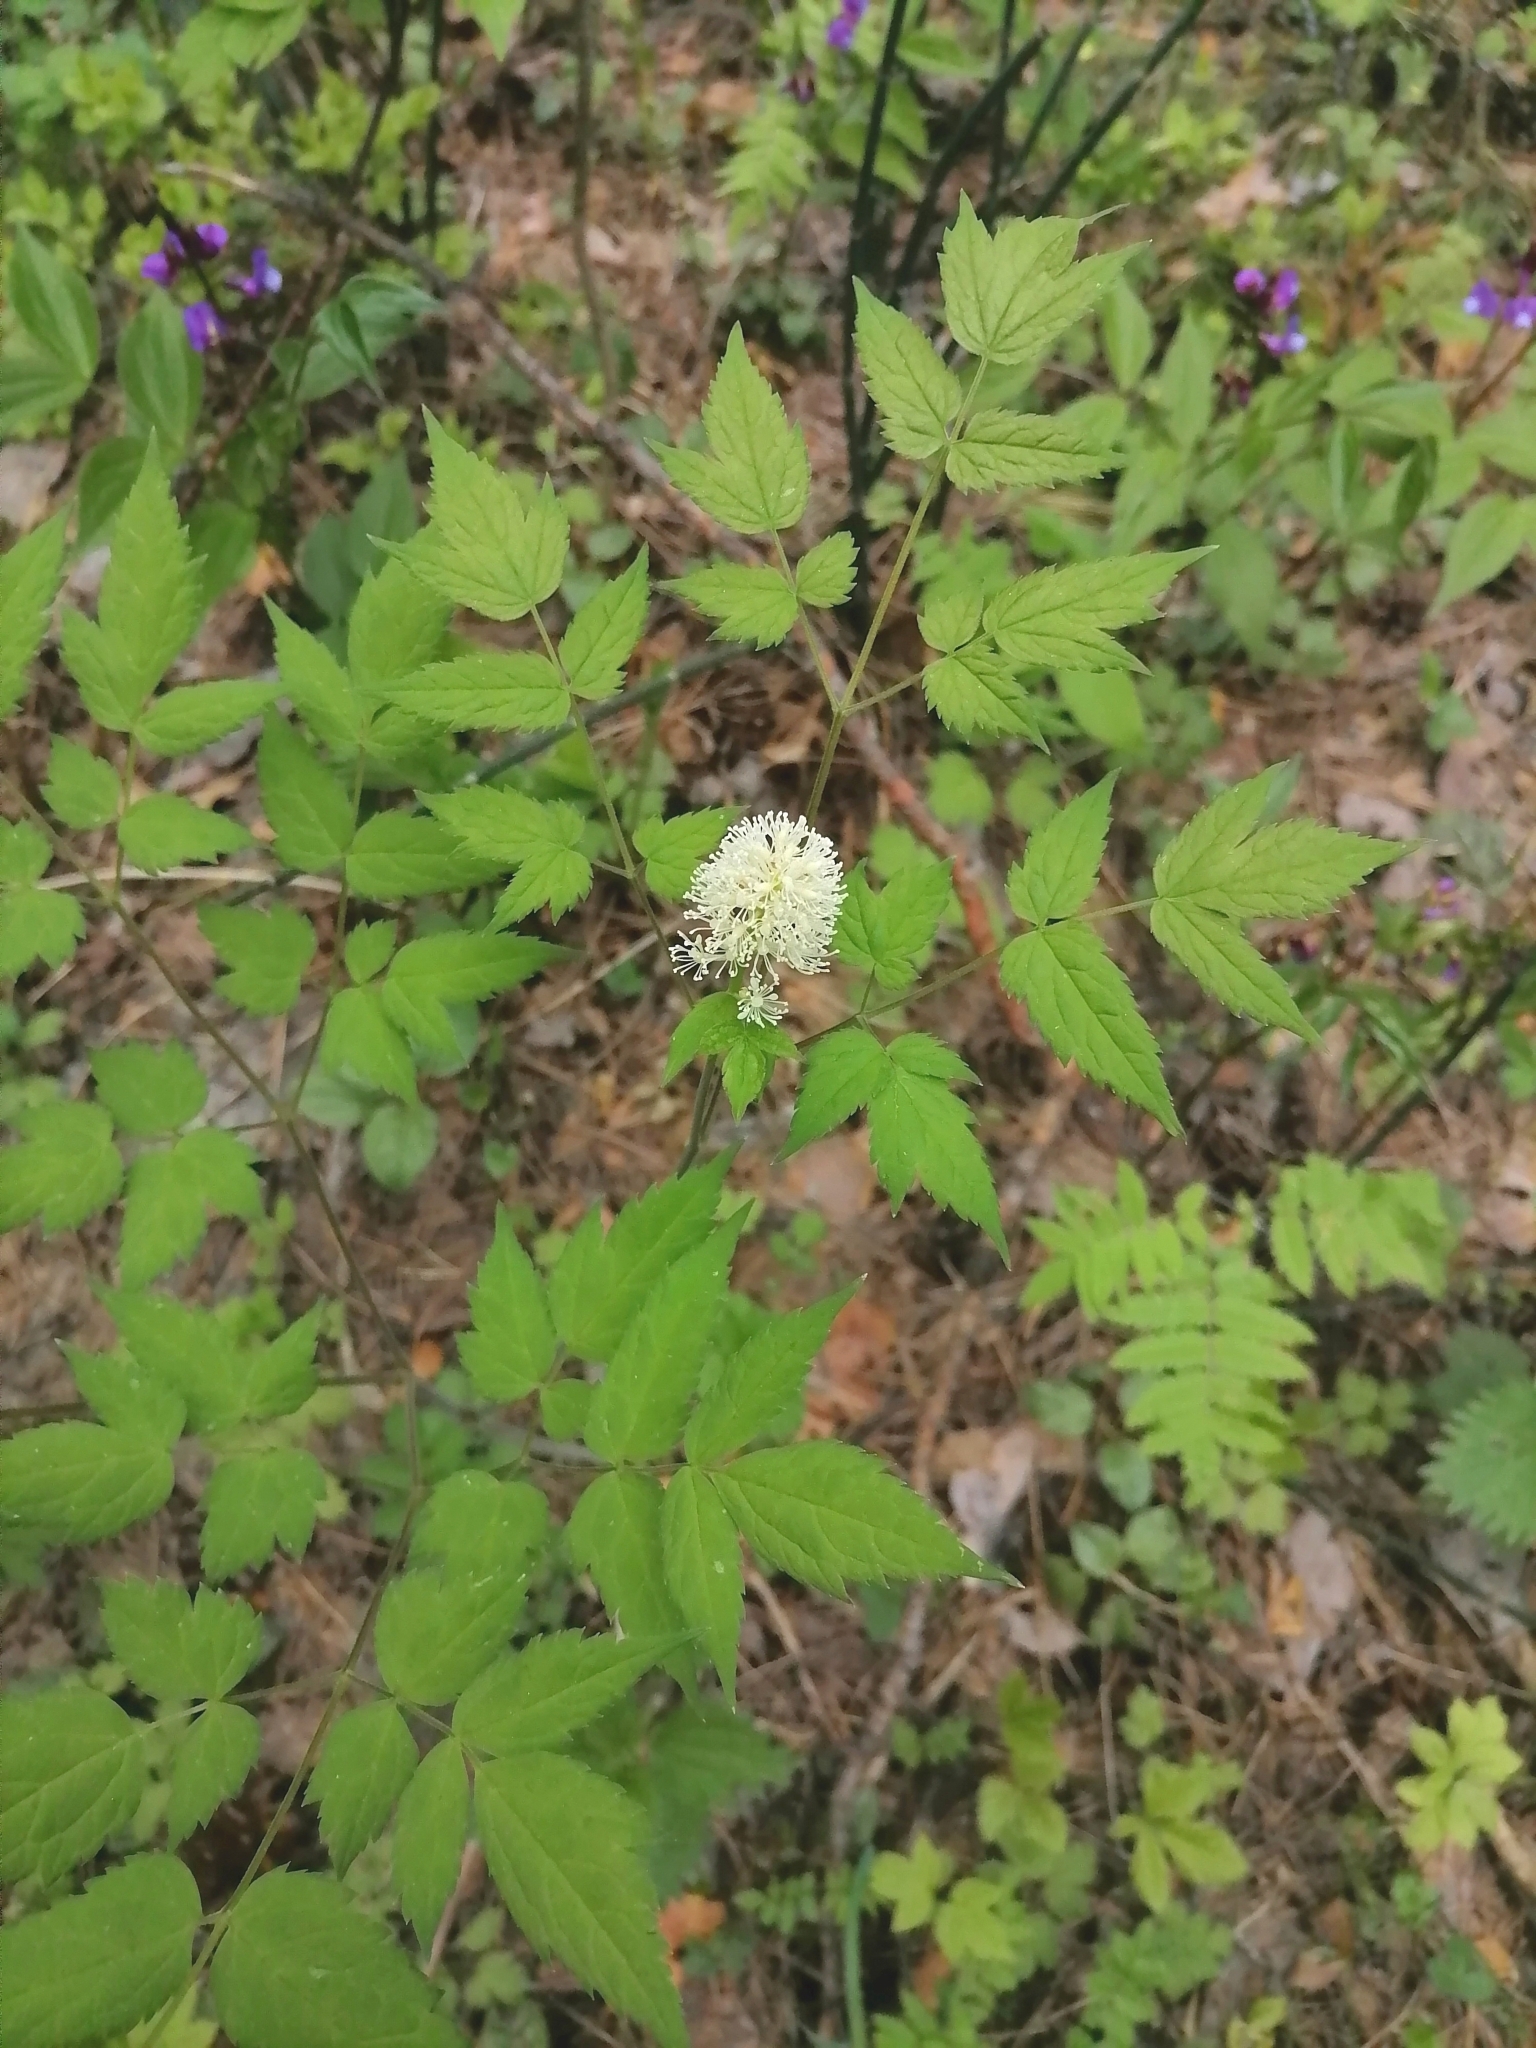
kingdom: Plantae
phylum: Tracheophyta
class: Magnoliopsida
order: Ranunculales
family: Ranunculaceae
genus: Actaea
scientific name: Actaea erythrocarpa
